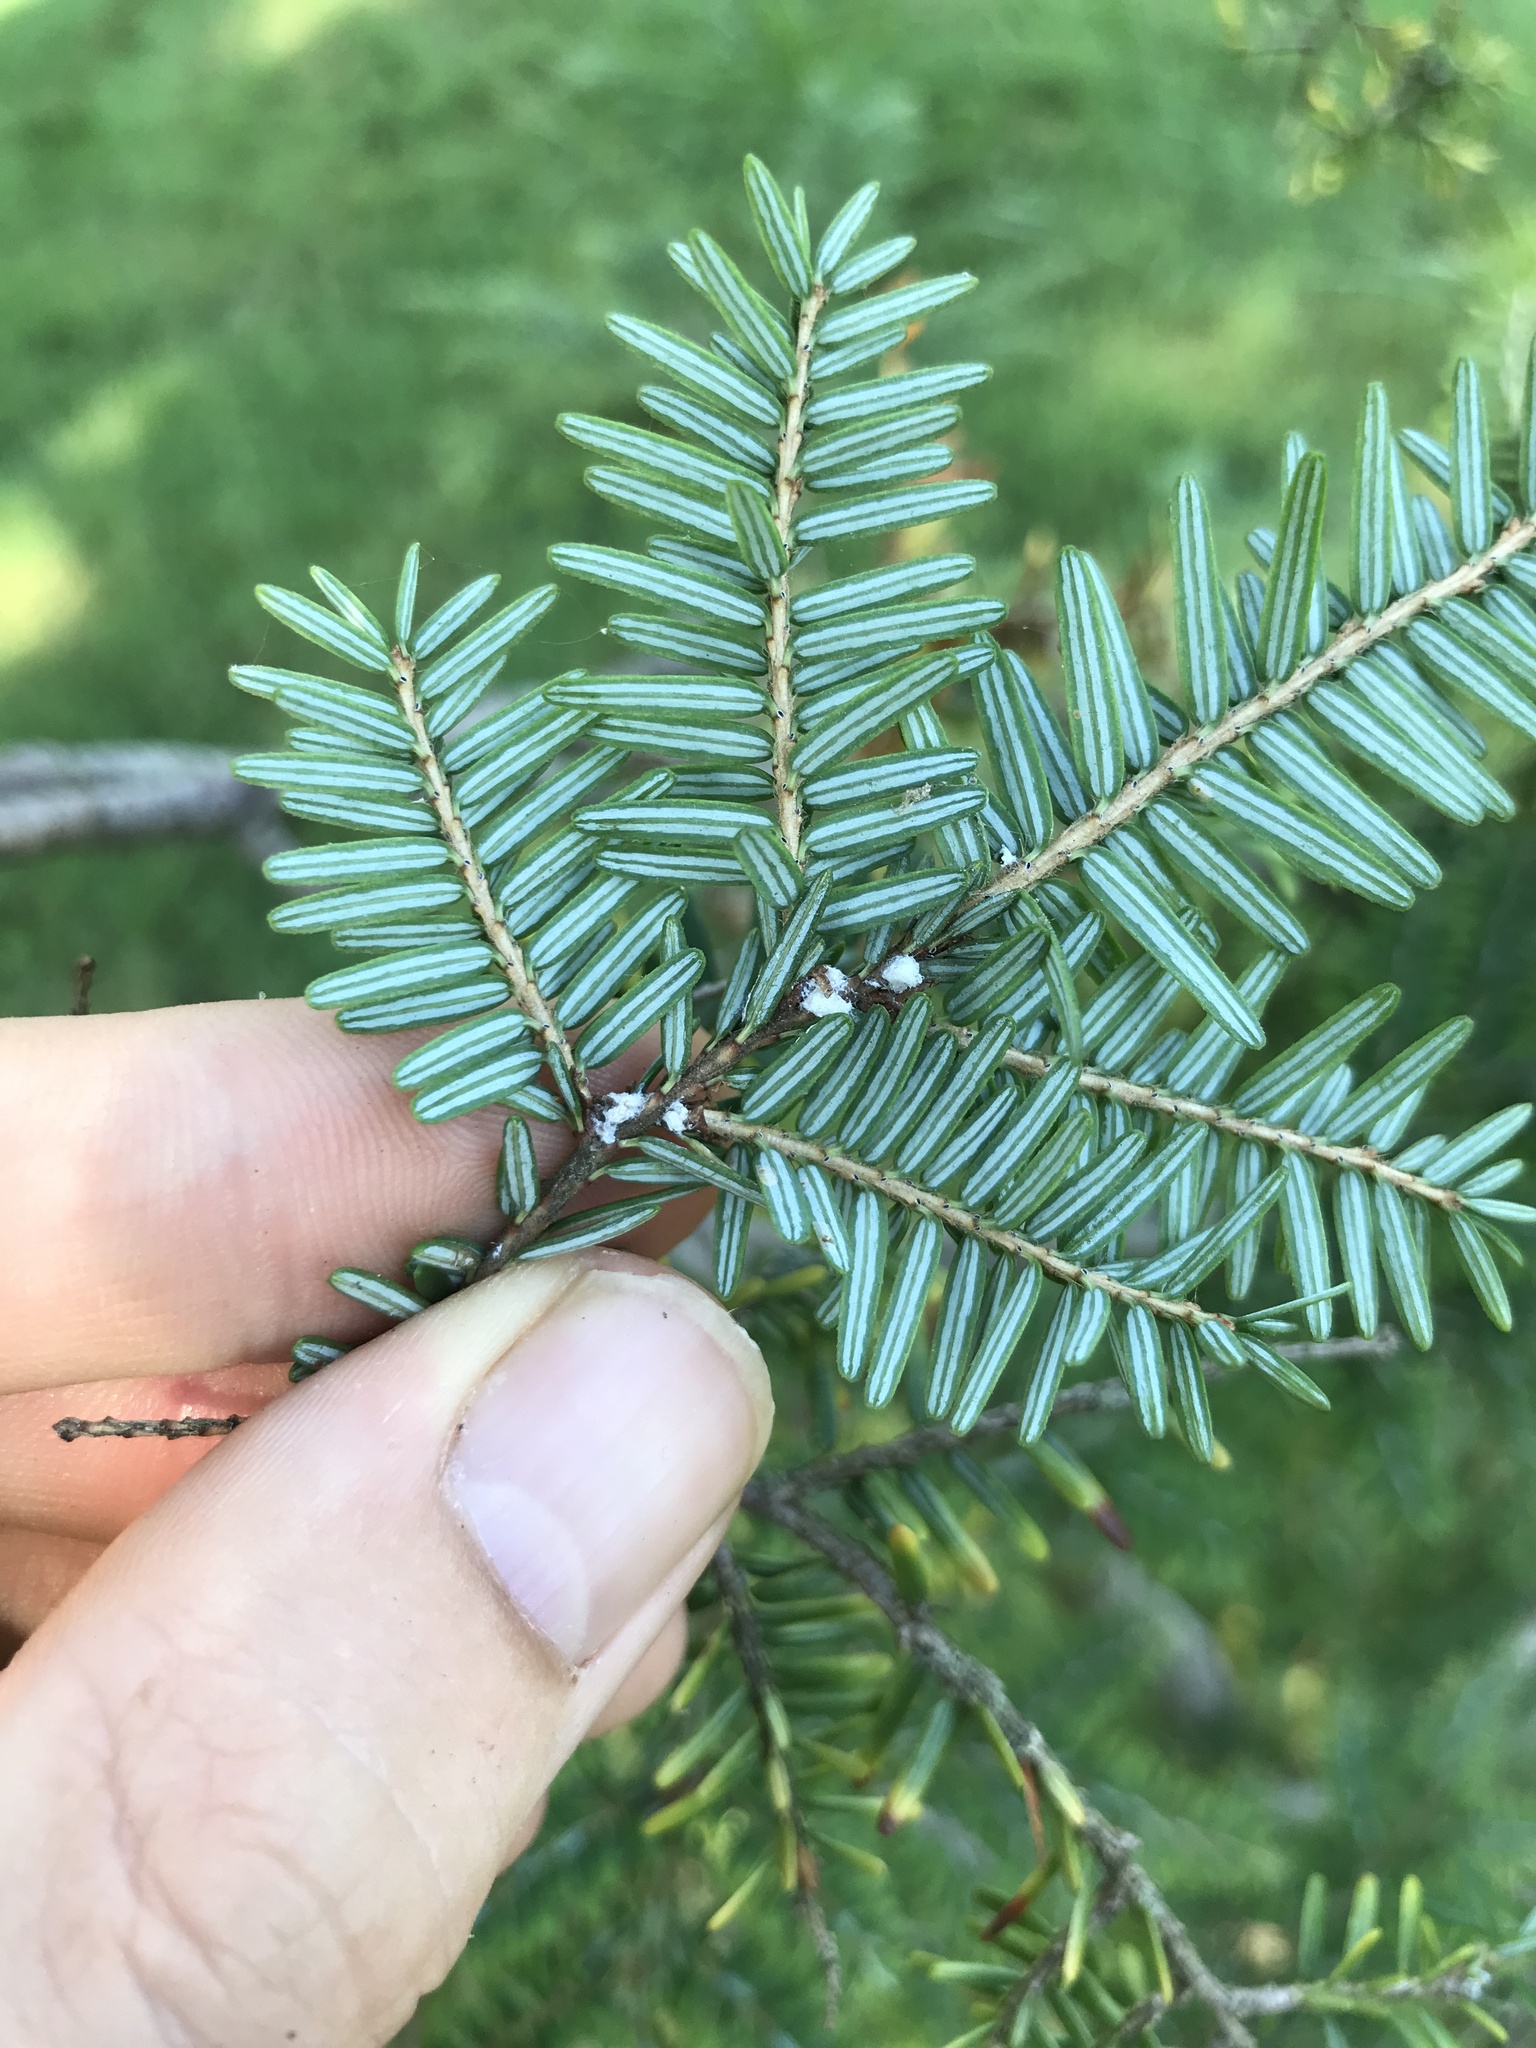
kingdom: Animalia
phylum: Arthropoda
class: Insecta
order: Hemiptera
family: Adelgidae
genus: Adelges
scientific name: Adelges tsugae
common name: Hemlock woolly adelgid
